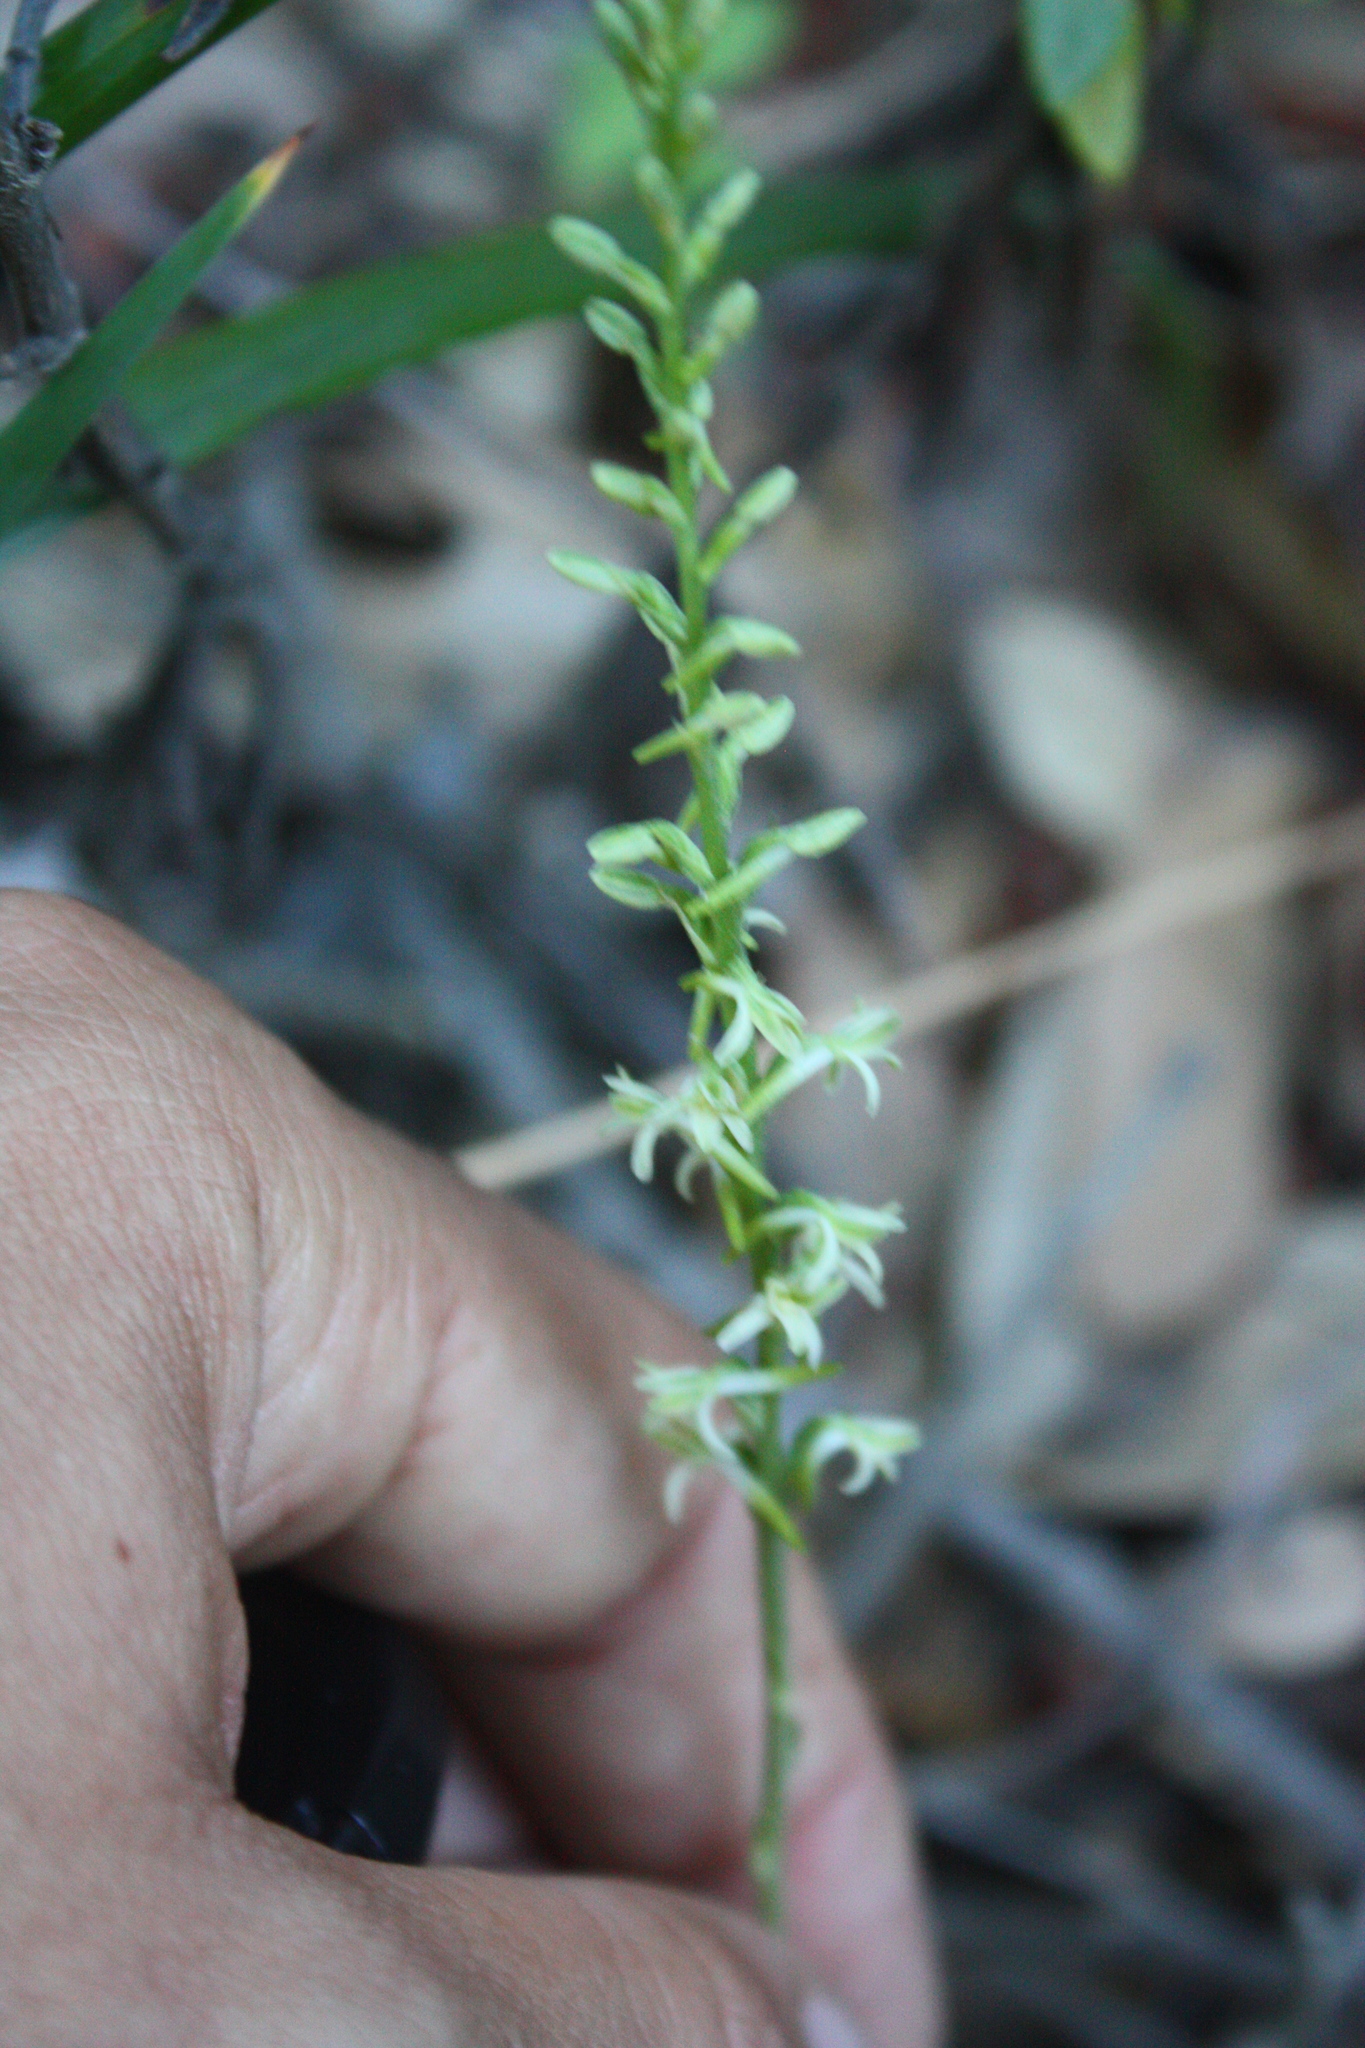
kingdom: Plantae
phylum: Tracheophyta
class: Liliopsida
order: Asparagales
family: Orchidaceae
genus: Platanthera
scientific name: Platanthera transversa
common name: Royal rein orchid
